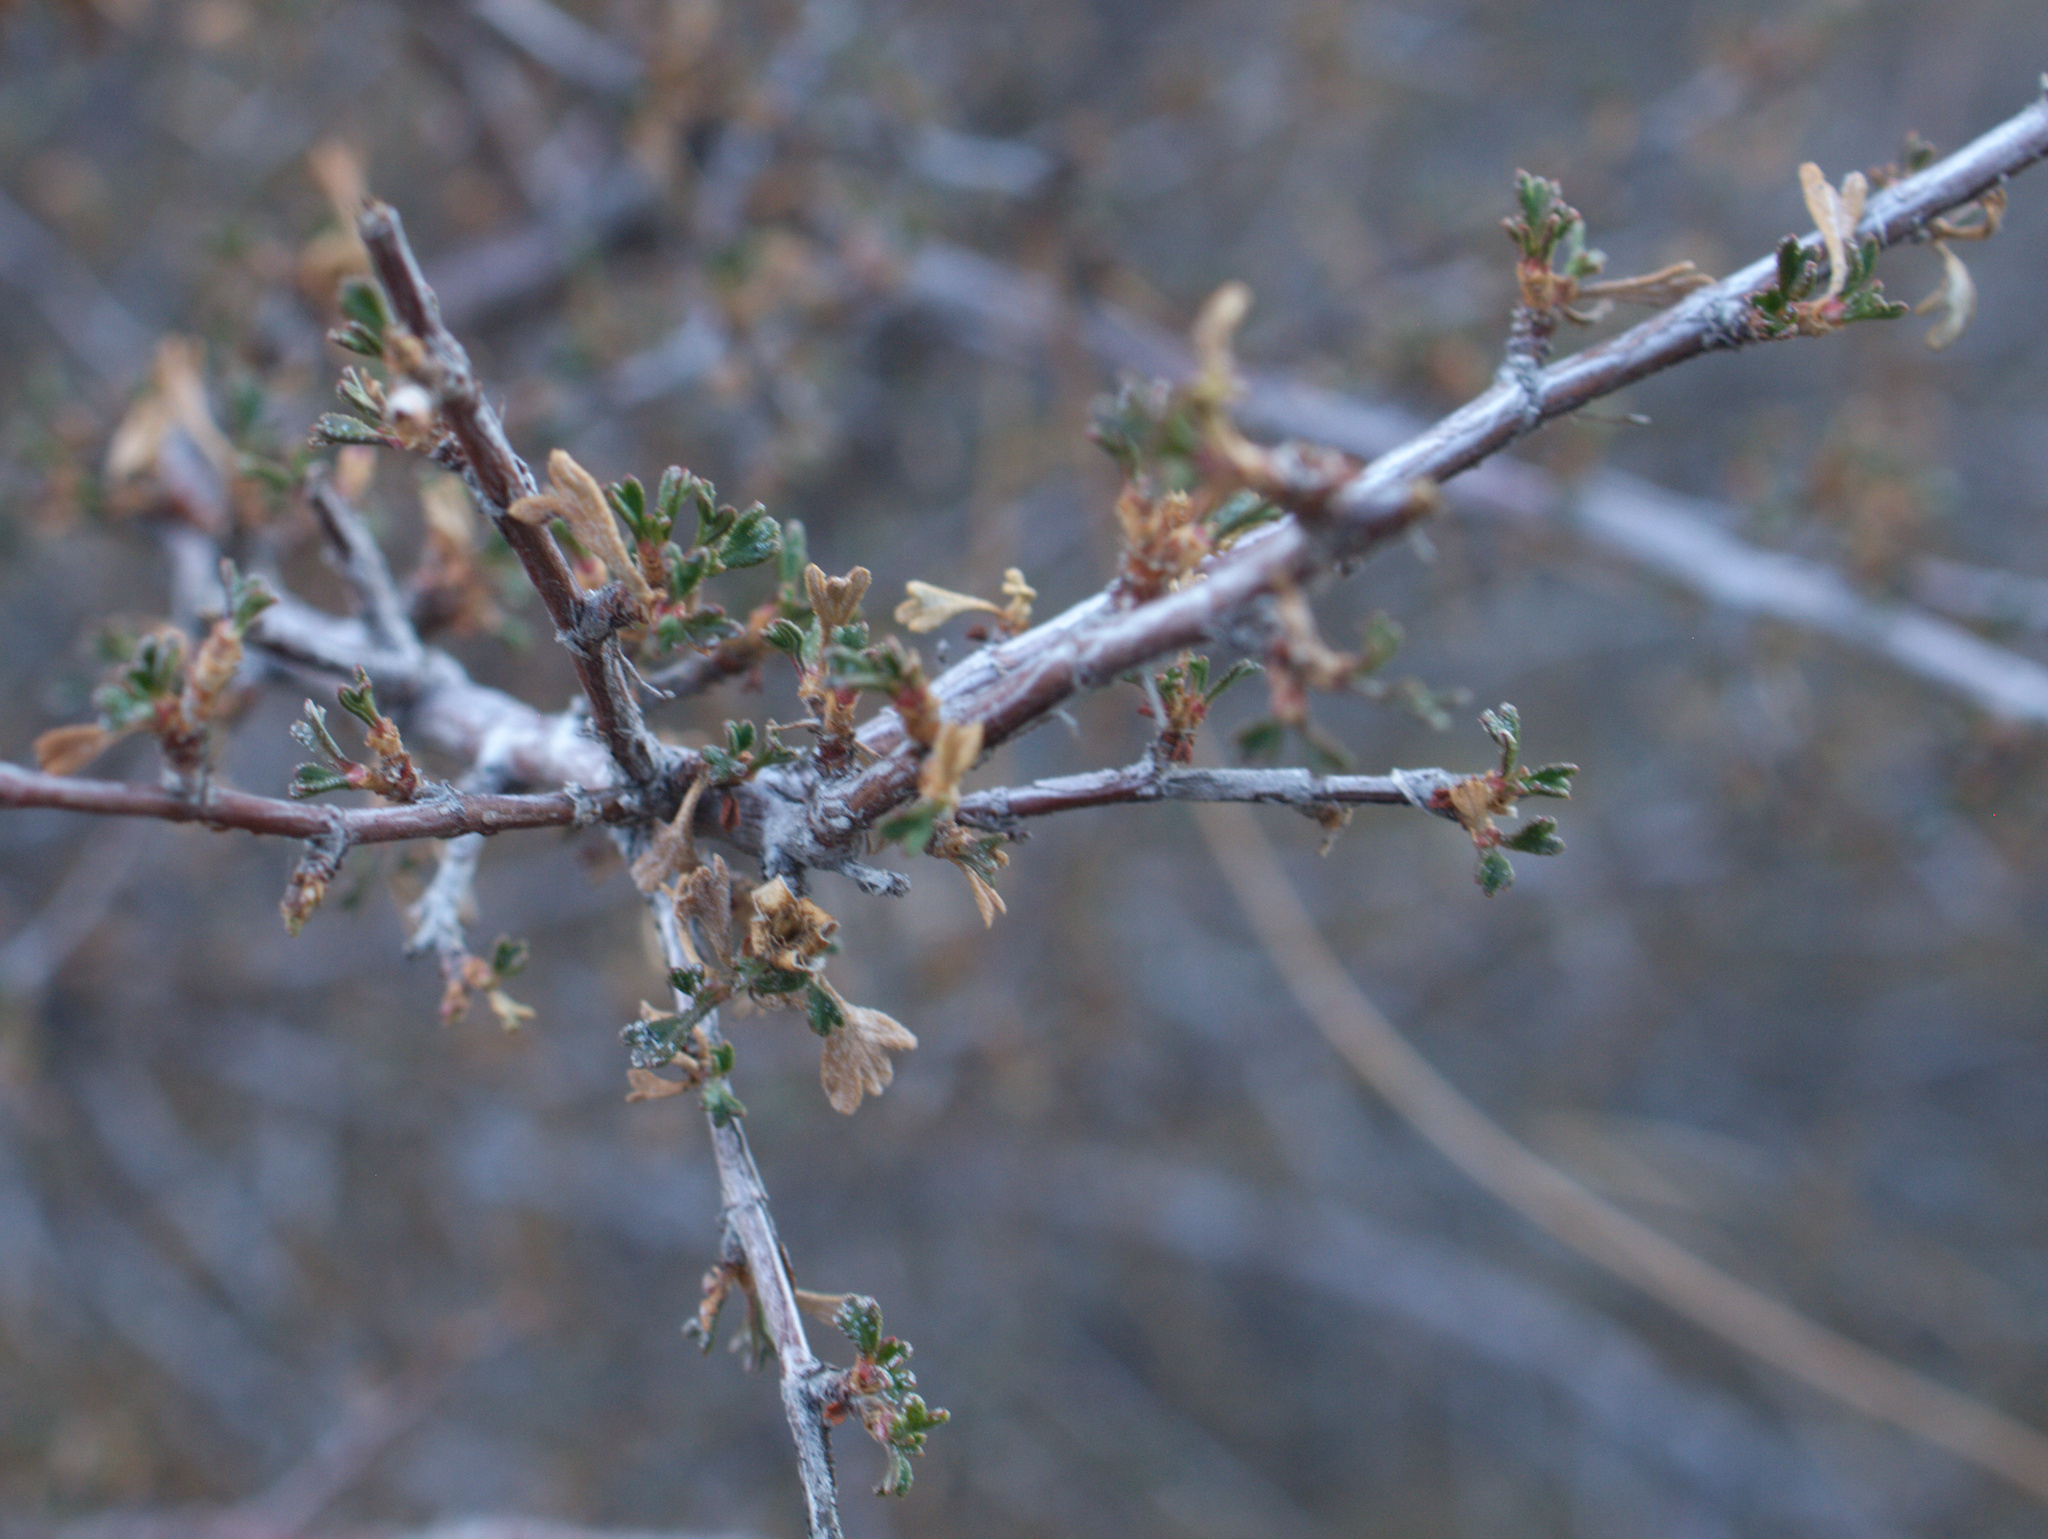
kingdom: Plantae
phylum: Tracheophyta
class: Magnoliopsida
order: Rosales
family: Rosaceae
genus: Purshia
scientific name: Purshia tridentata
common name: Antelope bitterbrush
